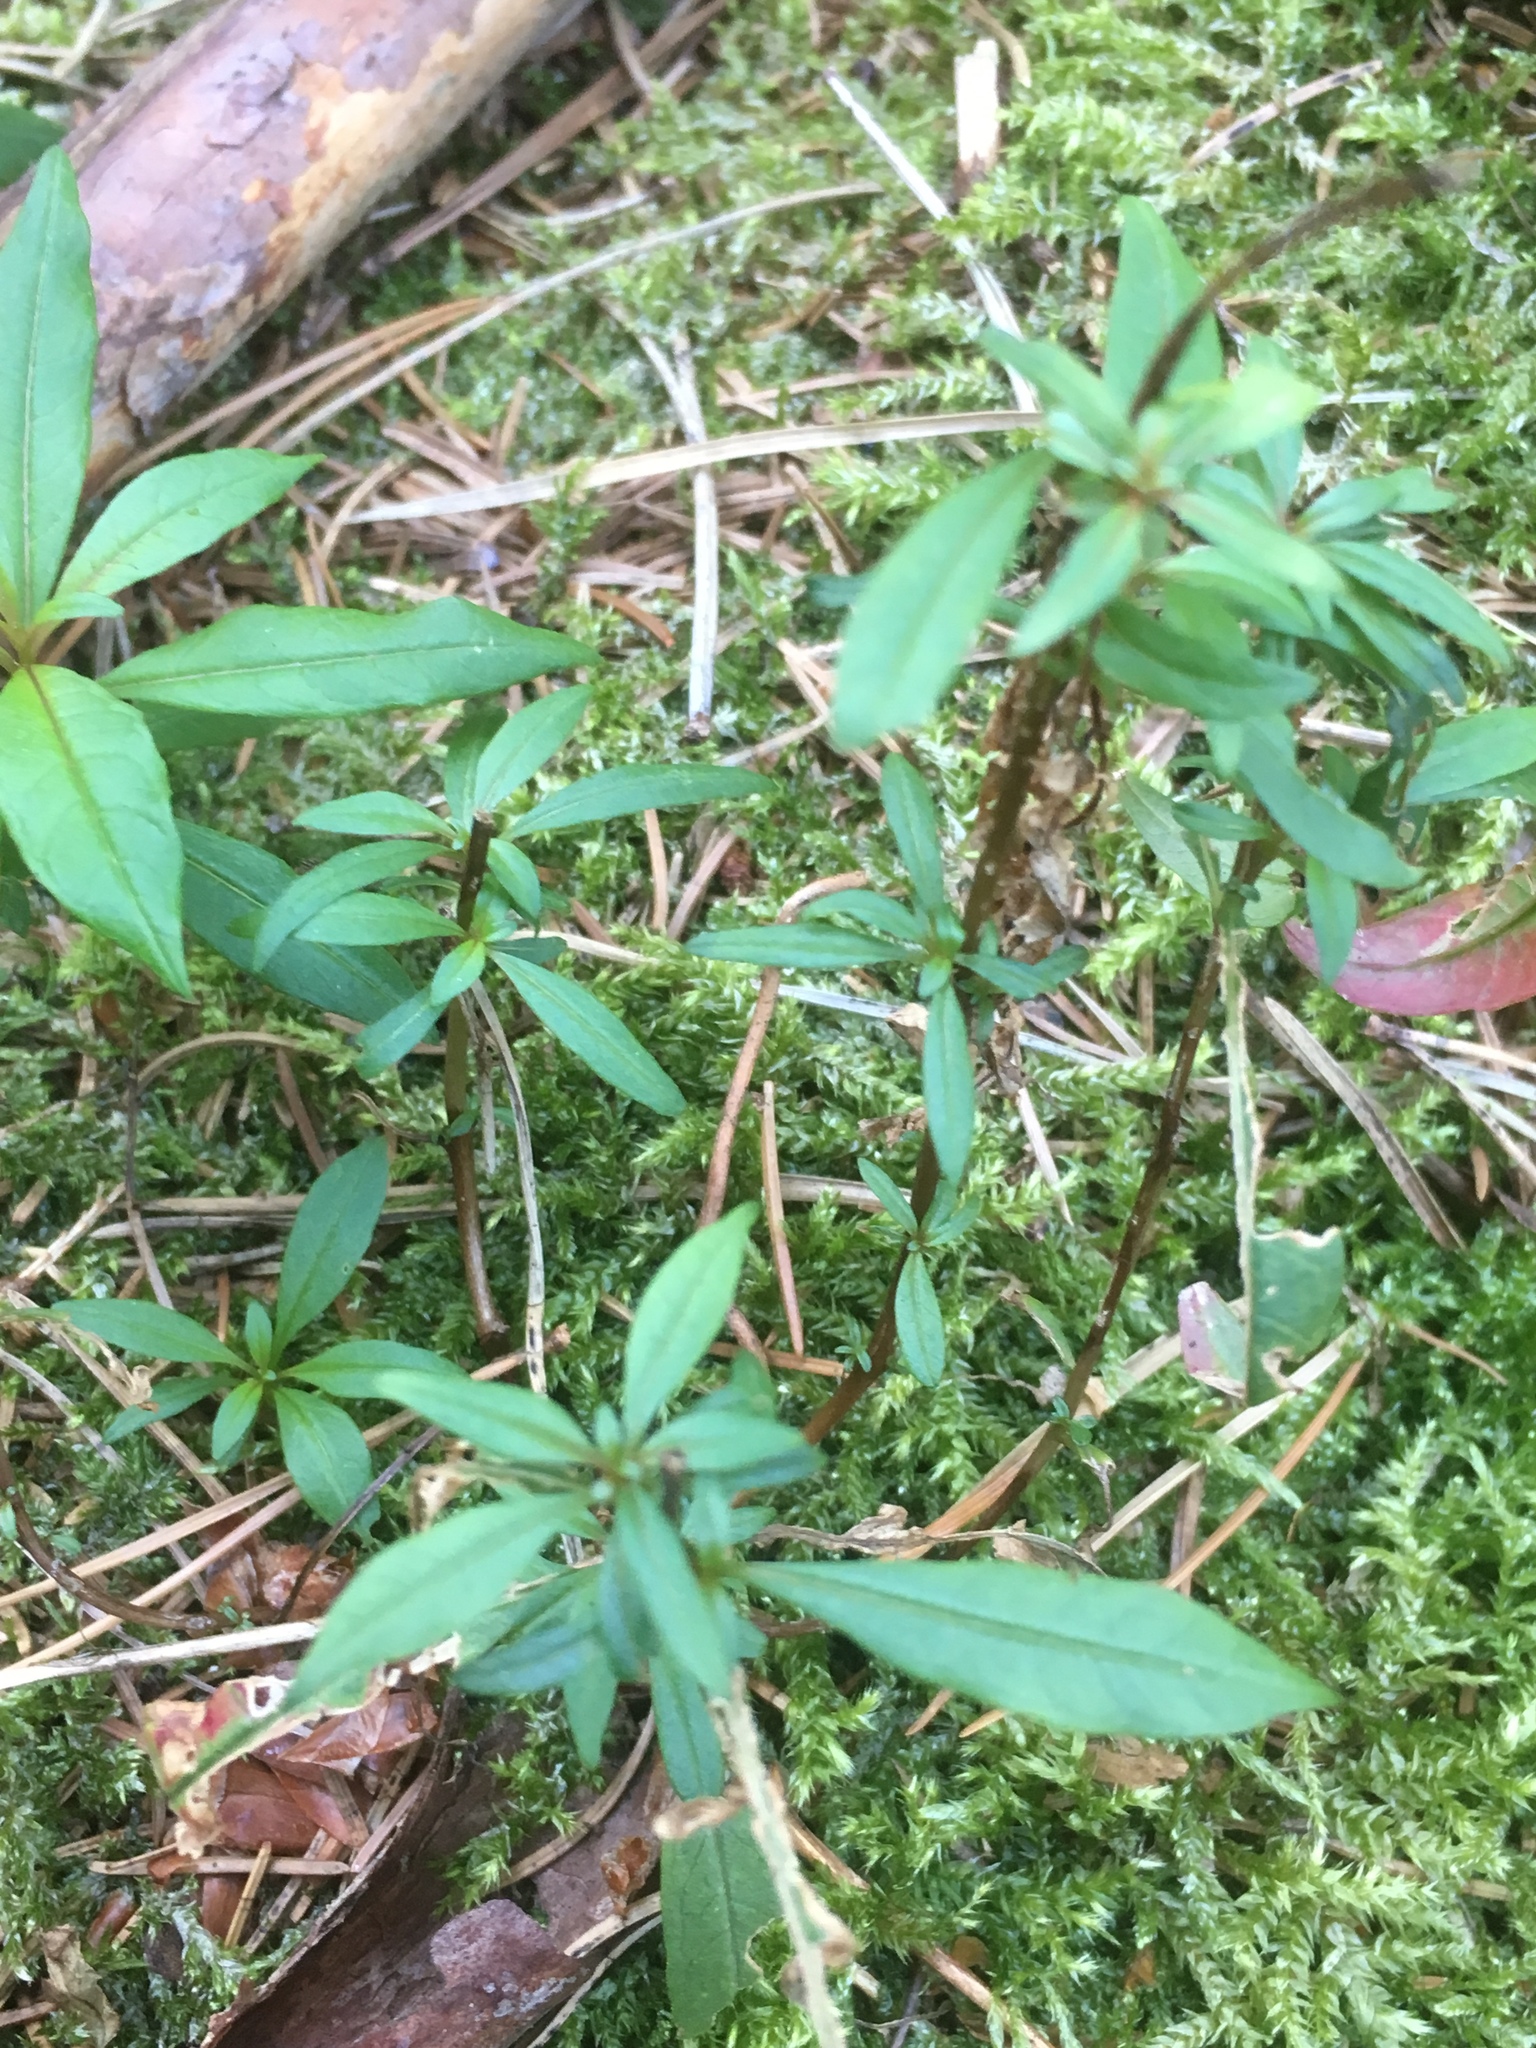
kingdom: Plantae
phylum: Tracheophyta
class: Magnoliopsida
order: Lamiales
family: Oleaceae
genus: Ligustrum
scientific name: Ligustrum vulgare
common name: Wild privet
